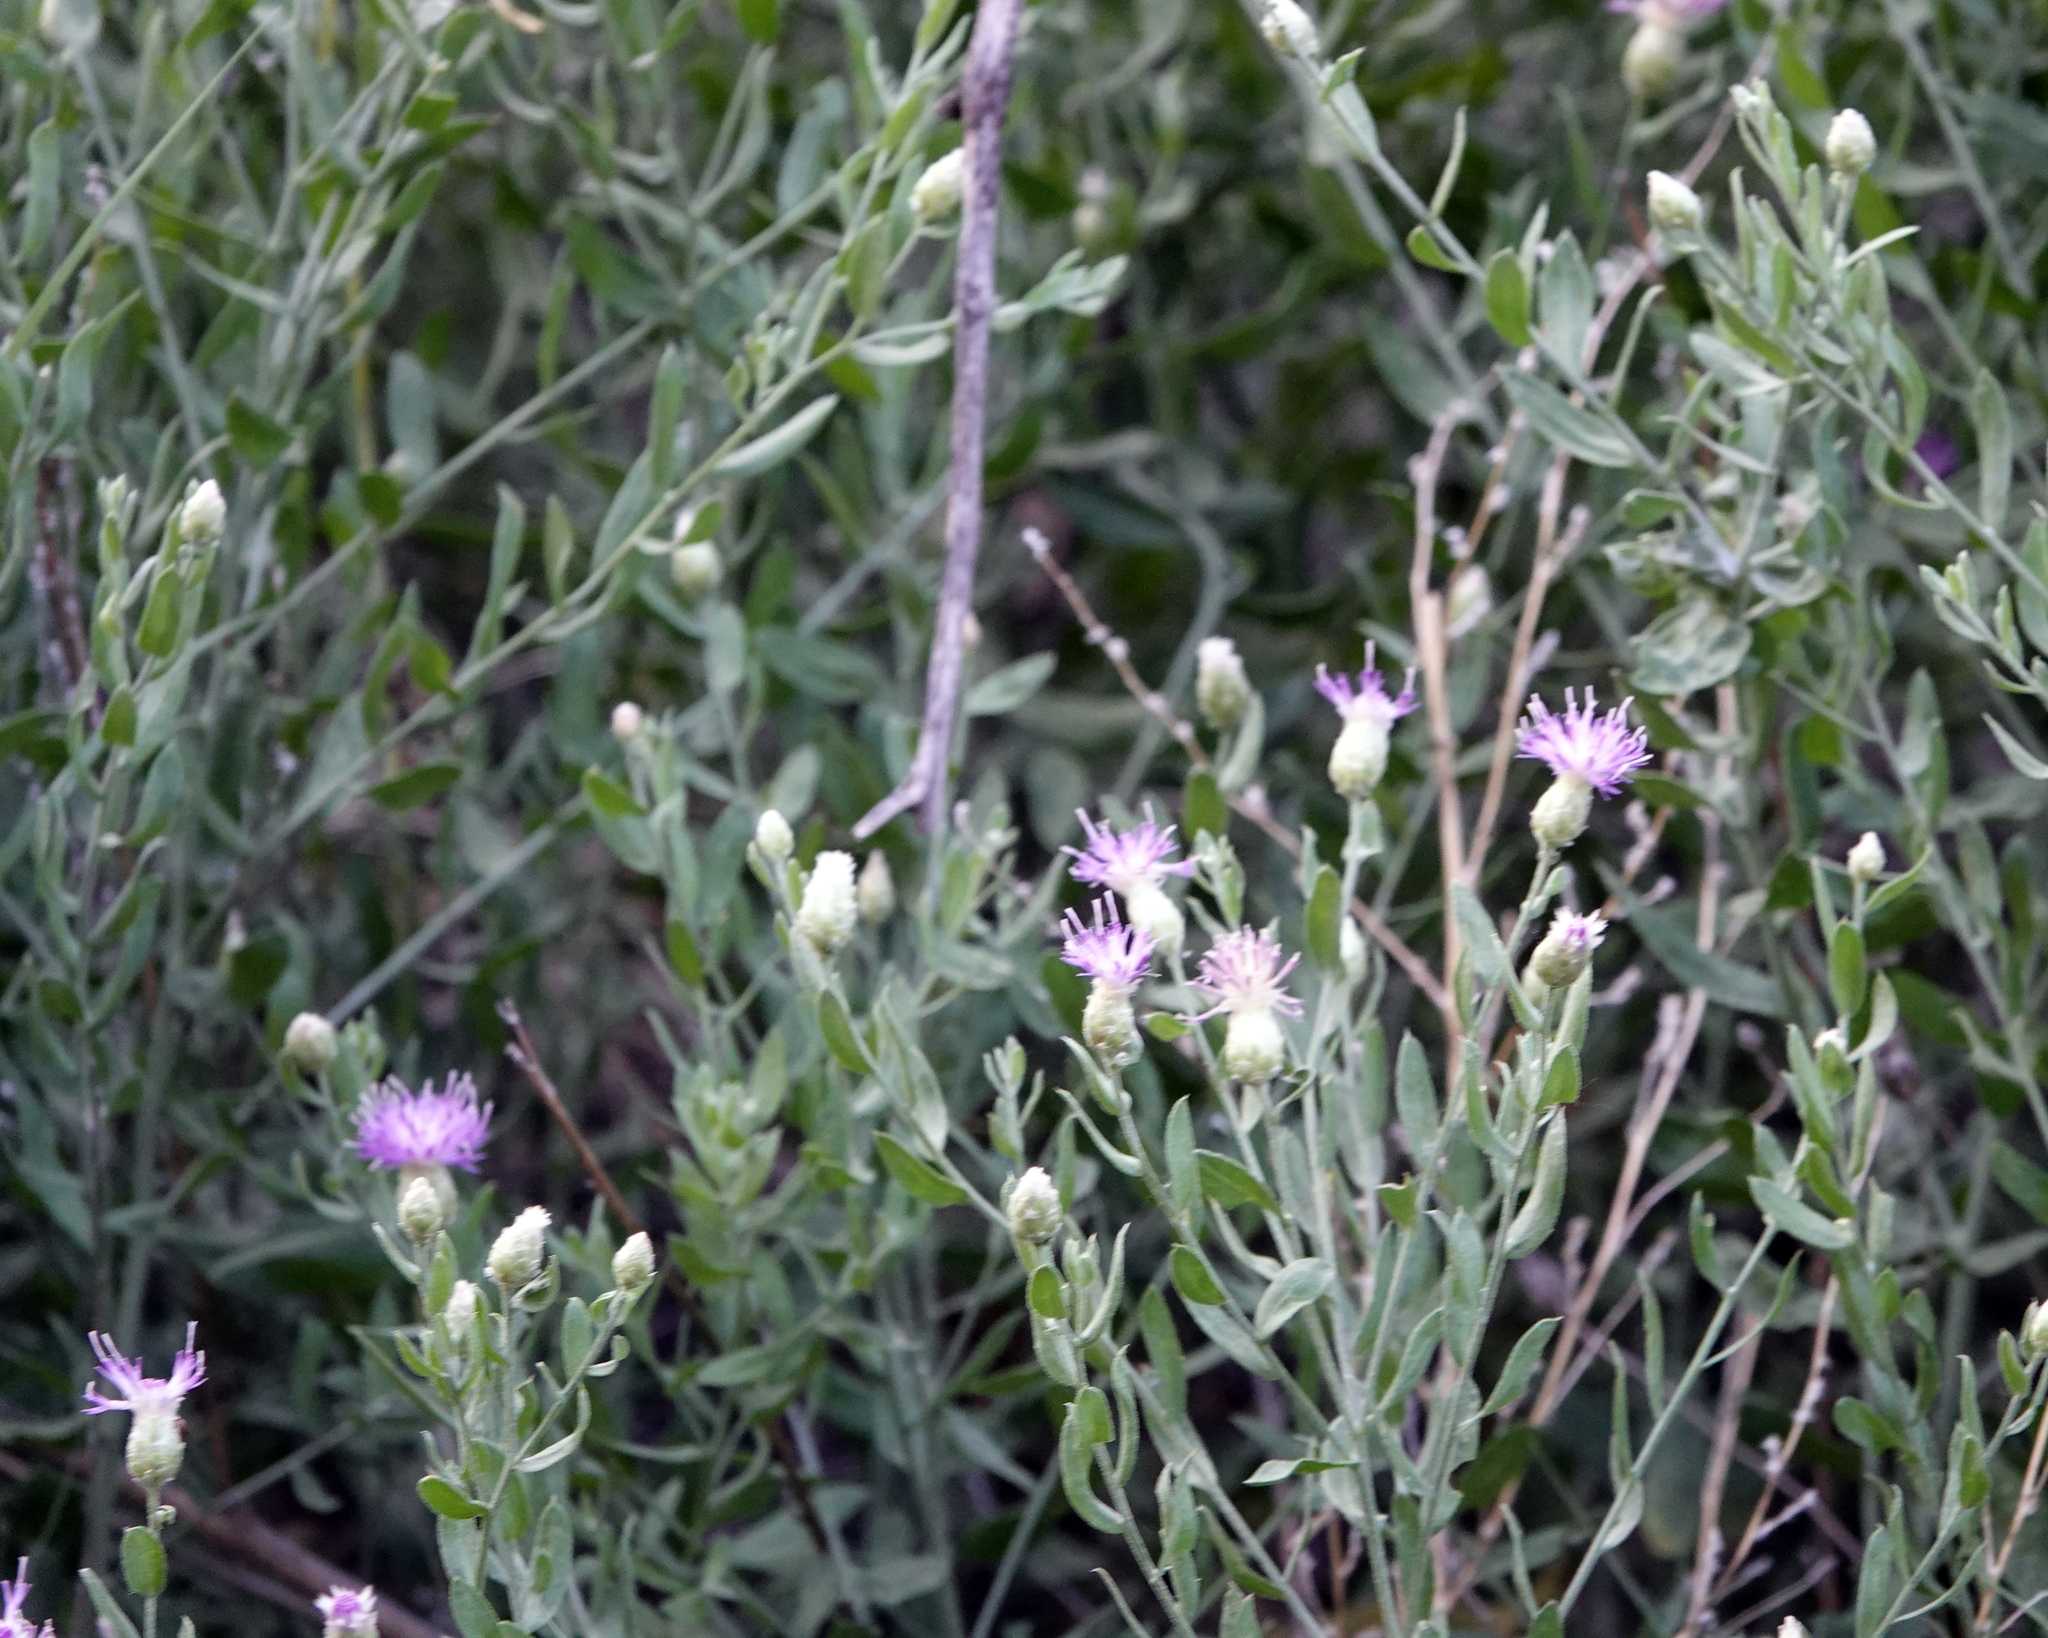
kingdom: Plantae
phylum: Tracheophyta
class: Magnoliopsida
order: Asterales
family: Asteraceae
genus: Leuzea
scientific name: Leuzea repens
